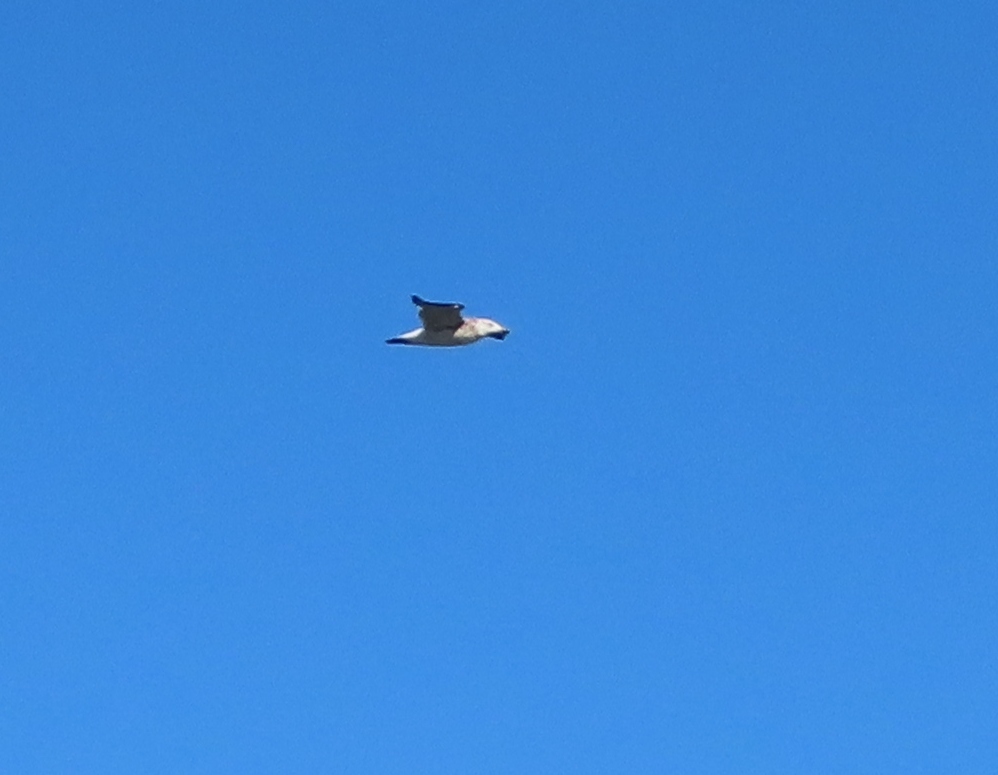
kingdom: Animalia
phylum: Chordata
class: Aves
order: Charadriiformes
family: Laridae
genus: Larus
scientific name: Larus dominicanus
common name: Kelp gull
